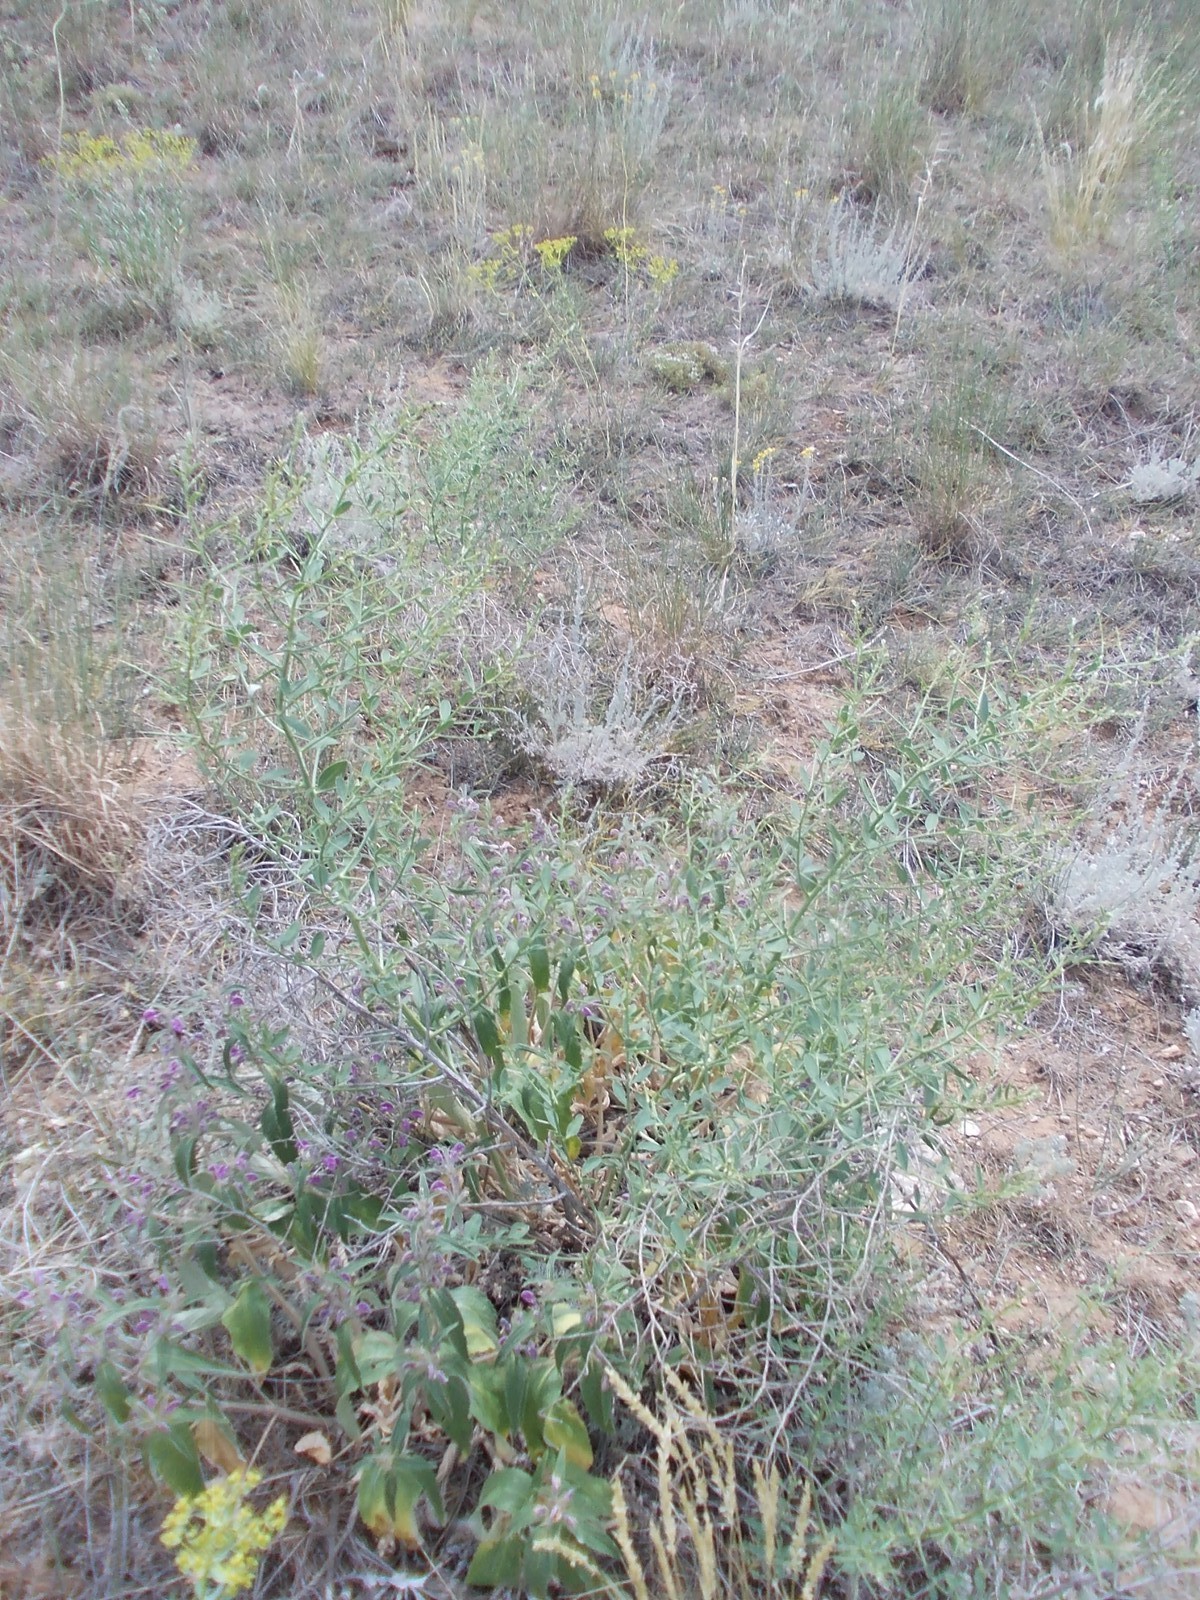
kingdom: Plantae
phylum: Tracheophyta
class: Magnoliopsida
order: Fabales
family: Fabaceae
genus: Alhagi
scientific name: Alhagi pseudalhagi
